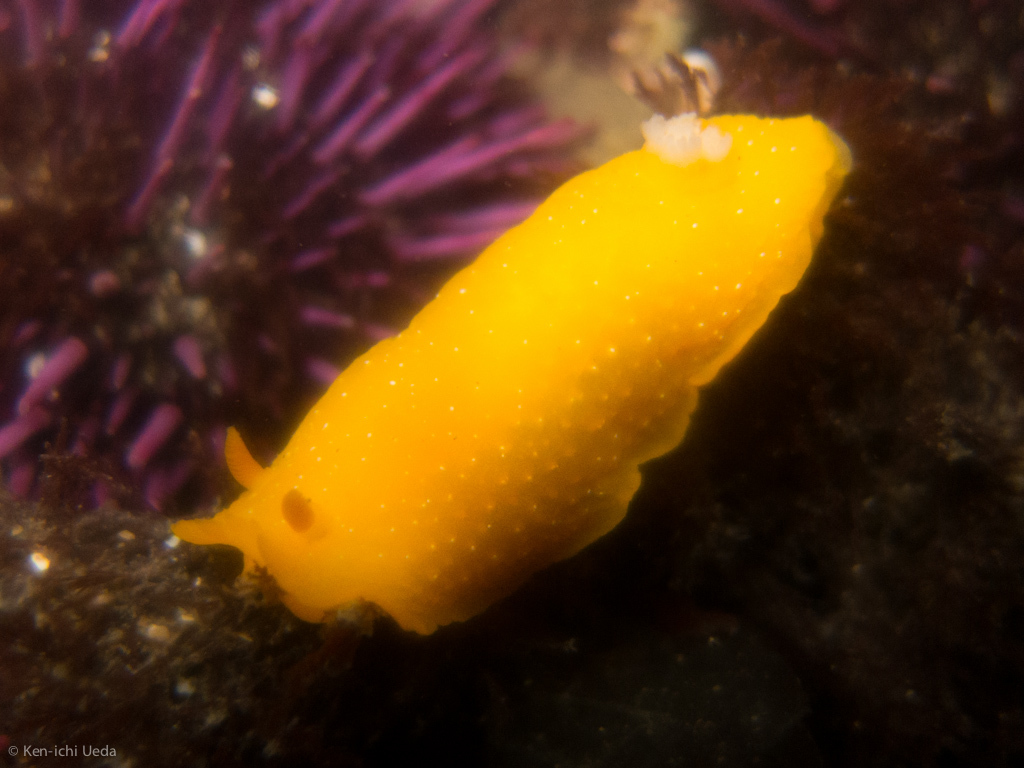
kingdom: Animalia
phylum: Mollusca
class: Gastropoda
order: Nudibranchia
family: Dendrodorididae
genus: Doriopsilla
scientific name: Doriopsilla fulva
